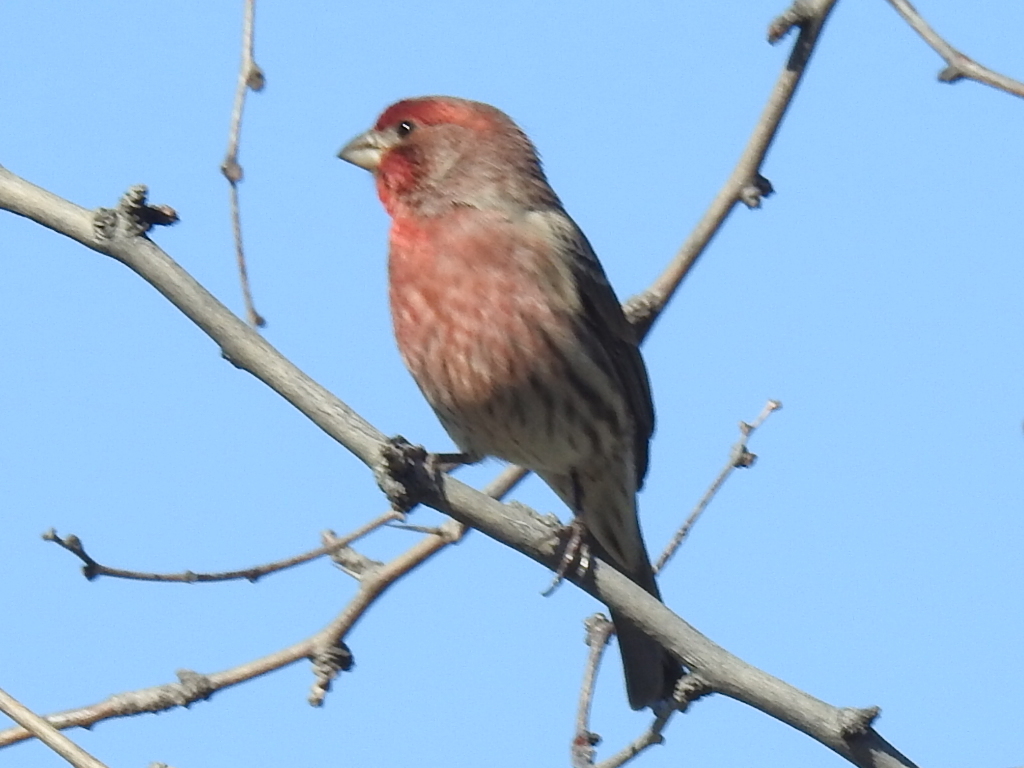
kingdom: Animalia
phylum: Chordata
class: Aves
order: Passeriformes
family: Fringillidae
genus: Haemorhous
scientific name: Haemorhous mexicanus
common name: House finch
